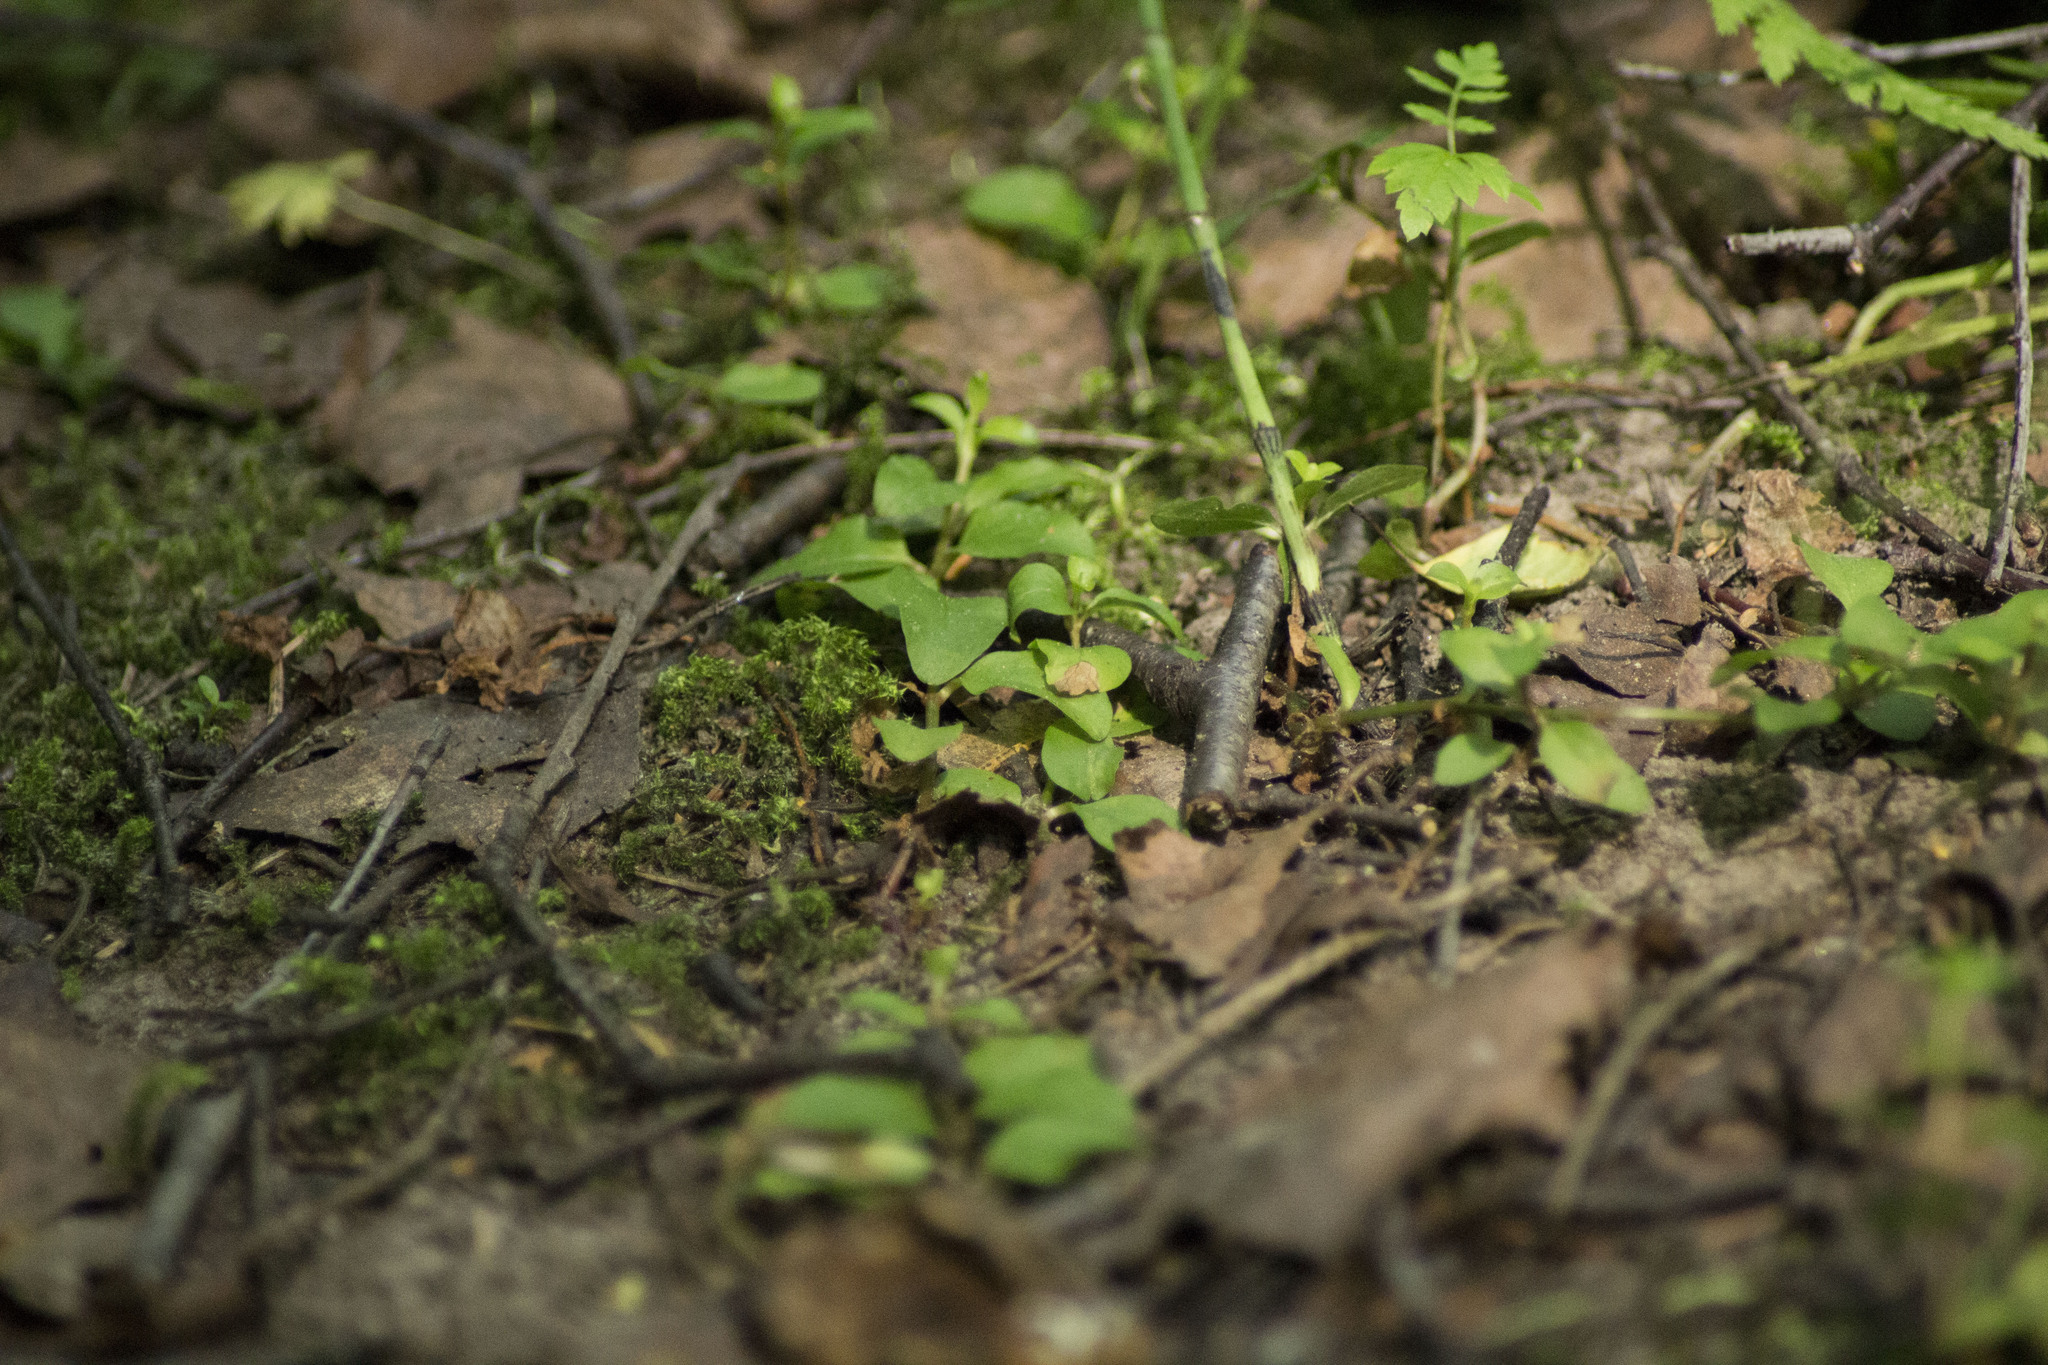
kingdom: Plantae
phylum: Tracheophyta
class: Magnoliopsida
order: Lamiales
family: Plantaginaceae
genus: Veronica
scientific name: Veronica serpyllifolia
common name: Thyme-leaved speedwell
